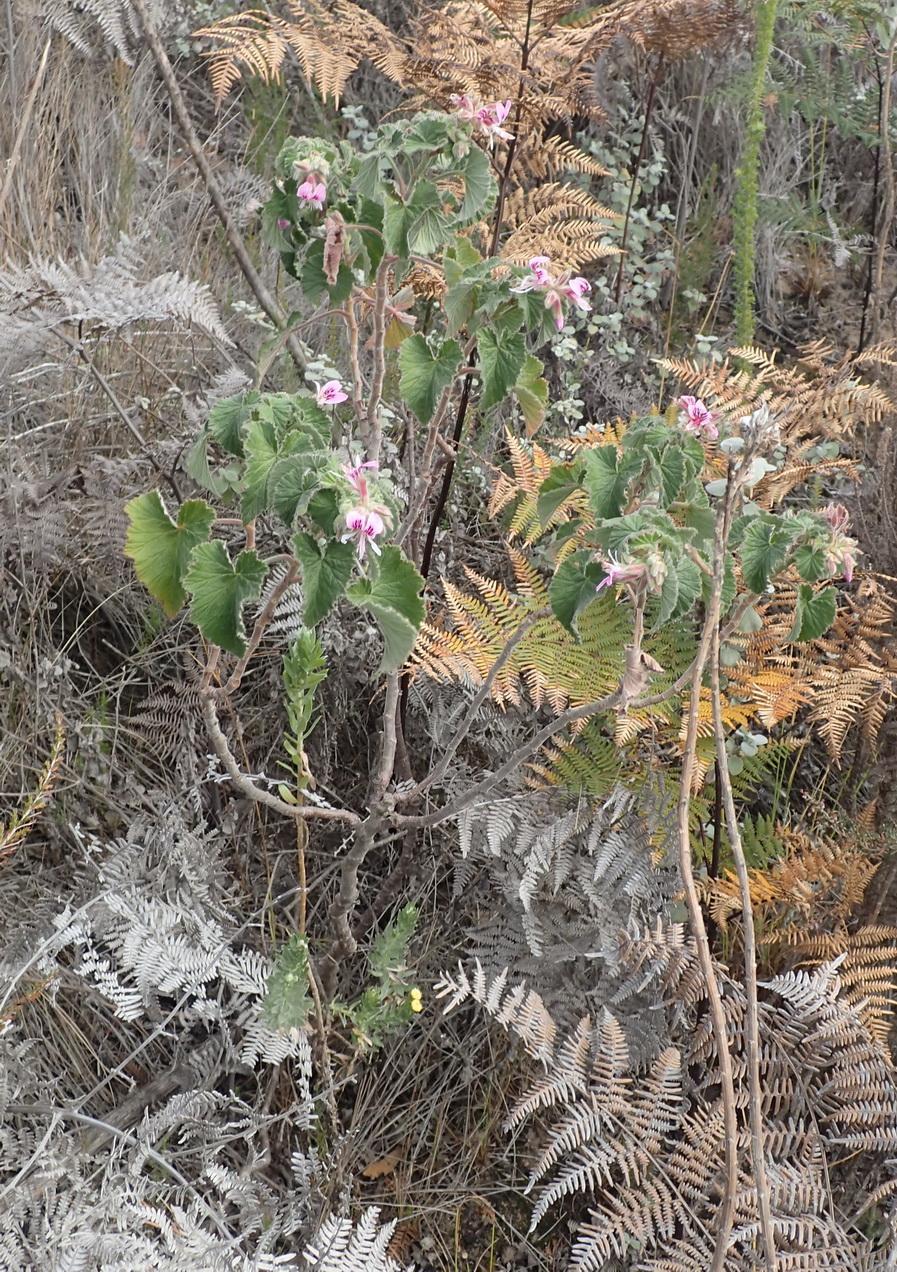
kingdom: Plantae
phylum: Tracheophyta
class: Magnoliopsida
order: Geraniales
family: Geraniaceae
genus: Pelargonium
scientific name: Pelargonium cordifolium
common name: Heart-leaf pelargonium
